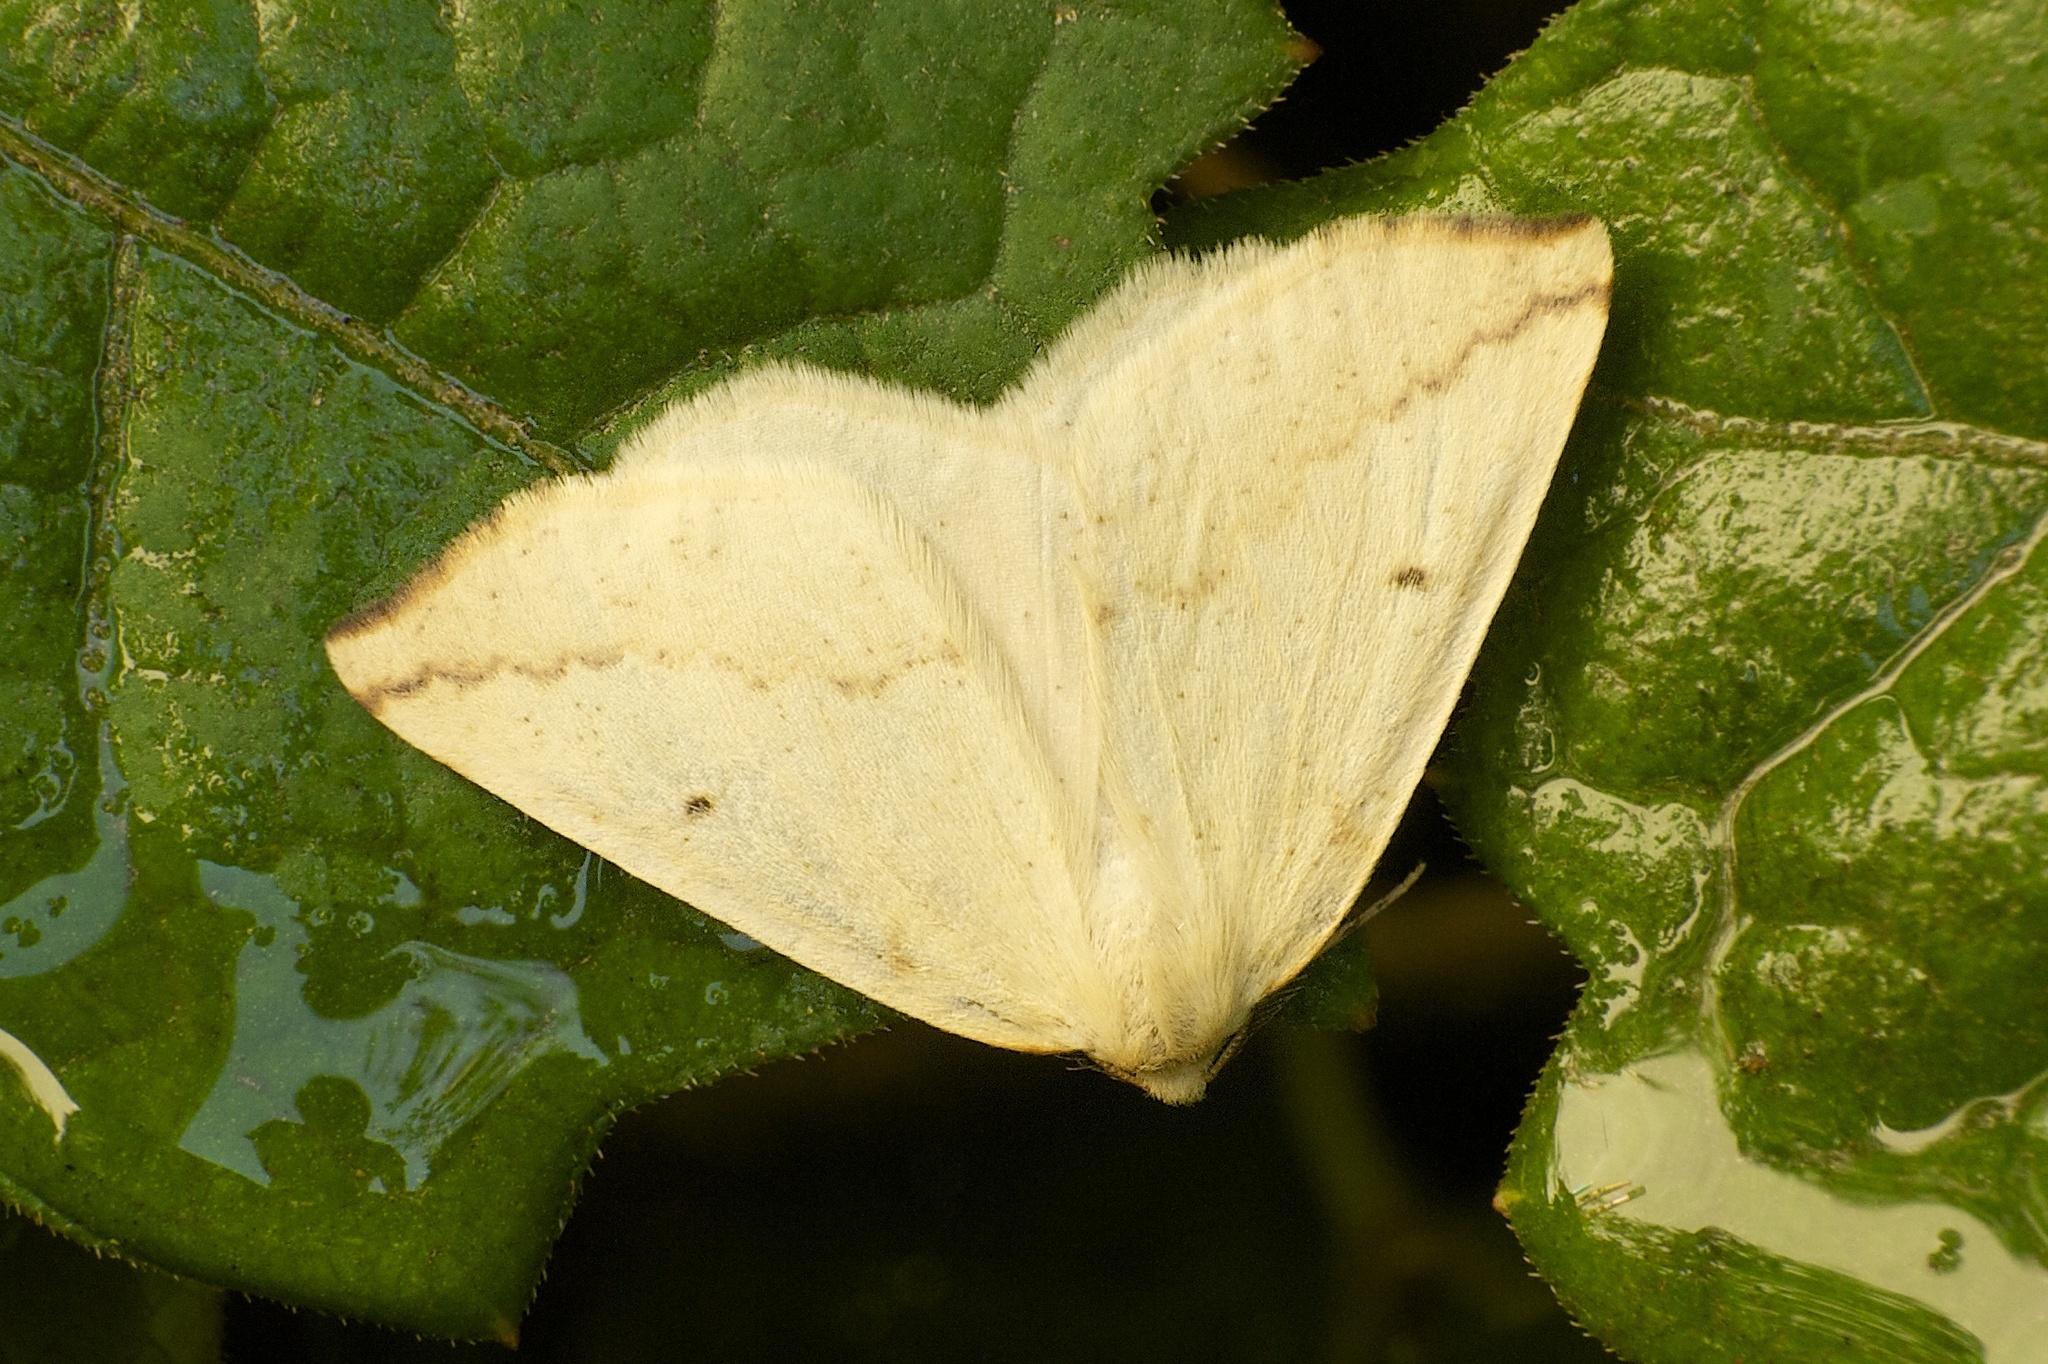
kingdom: Animalia
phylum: Arthropoda
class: Insecta
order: Lepidoptera
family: Geometridae
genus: Neoterpes
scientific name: Neoterpes edwardsata
